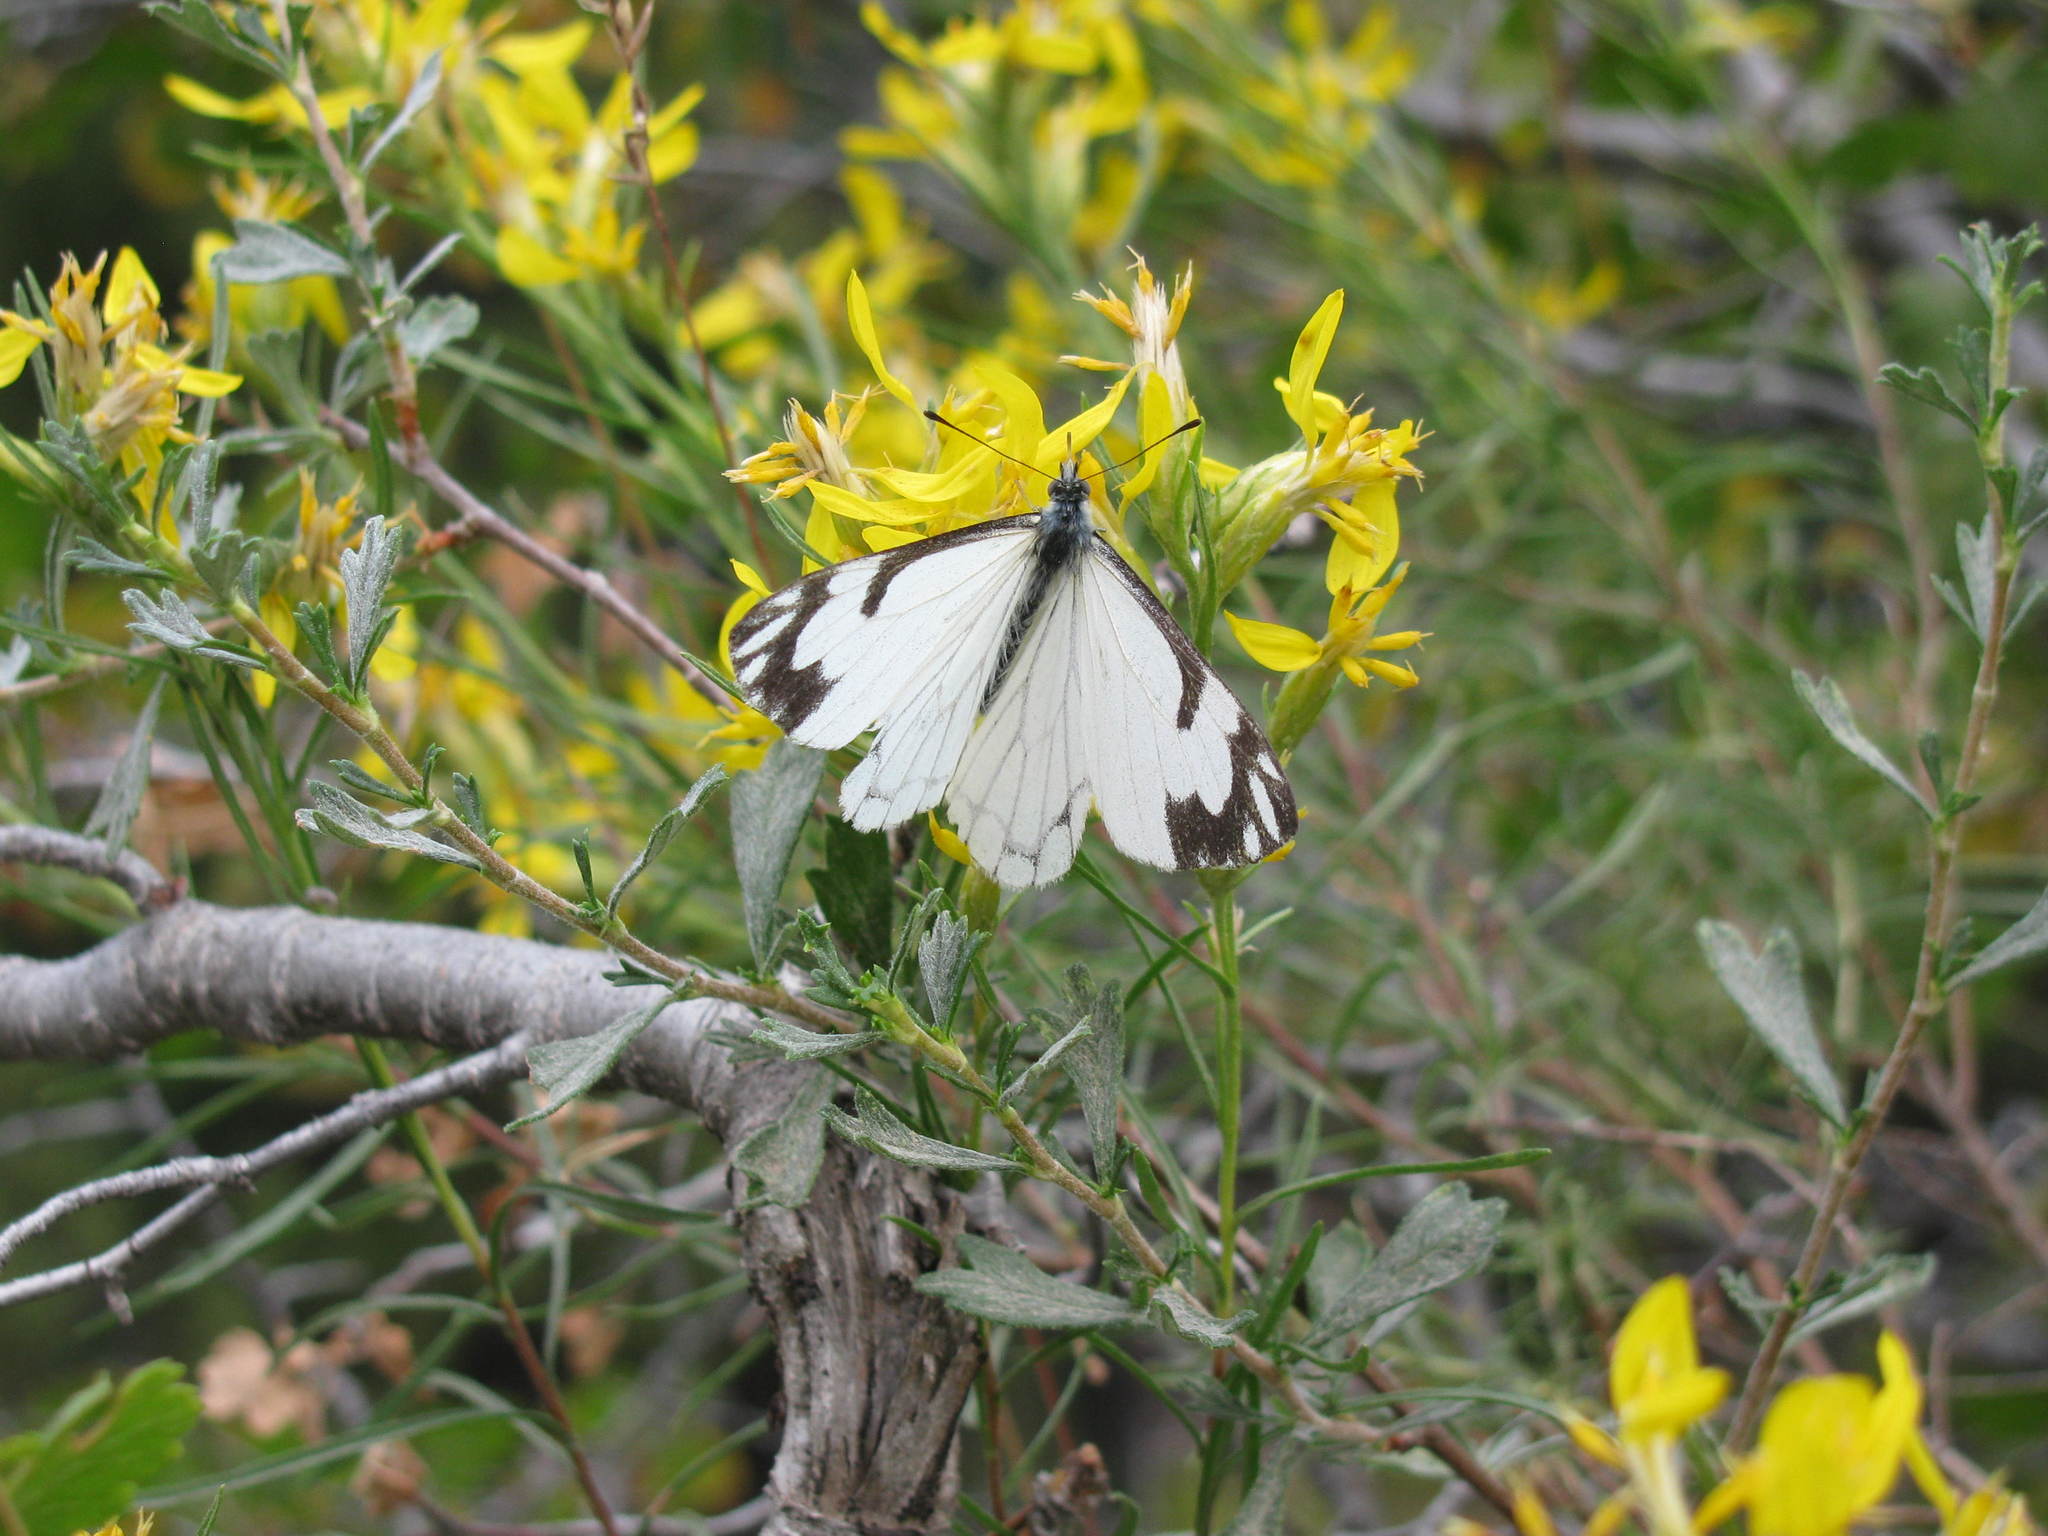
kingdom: Animalia
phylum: Arthropoda
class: Insecta
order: Lepidoptera
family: Pieridae
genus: Neophasia
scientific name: Neophasia menapia
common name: Pine white
